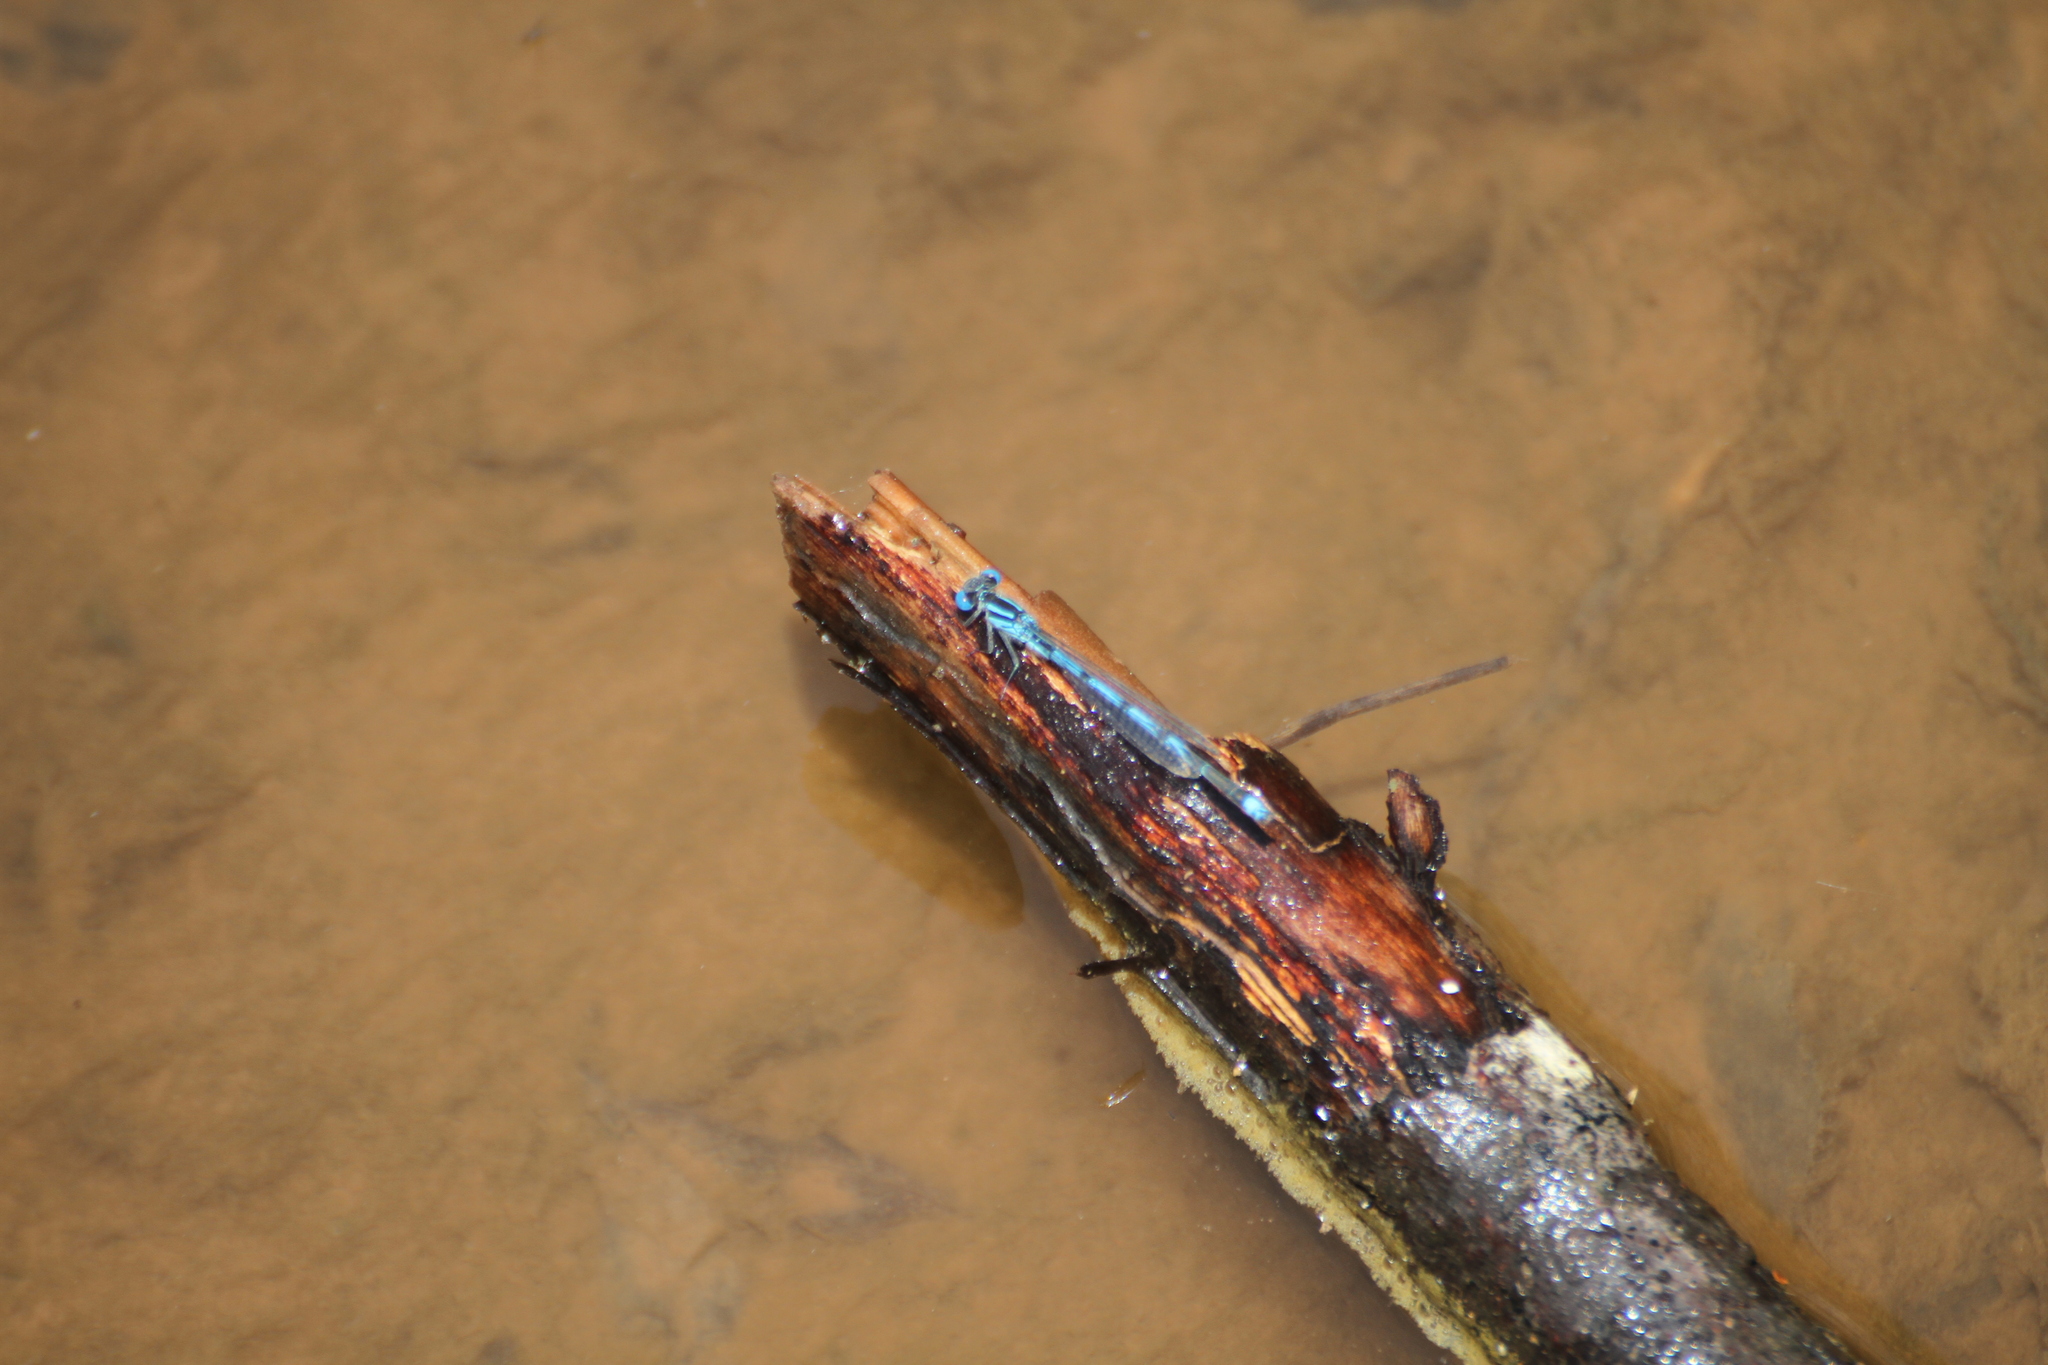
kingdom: Animalia
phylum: Arthropoda
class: Insecta
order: Odonata
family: Coenagrionidae
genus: Erythromma
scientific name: Erythromma lindenii
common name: Blue-eye
